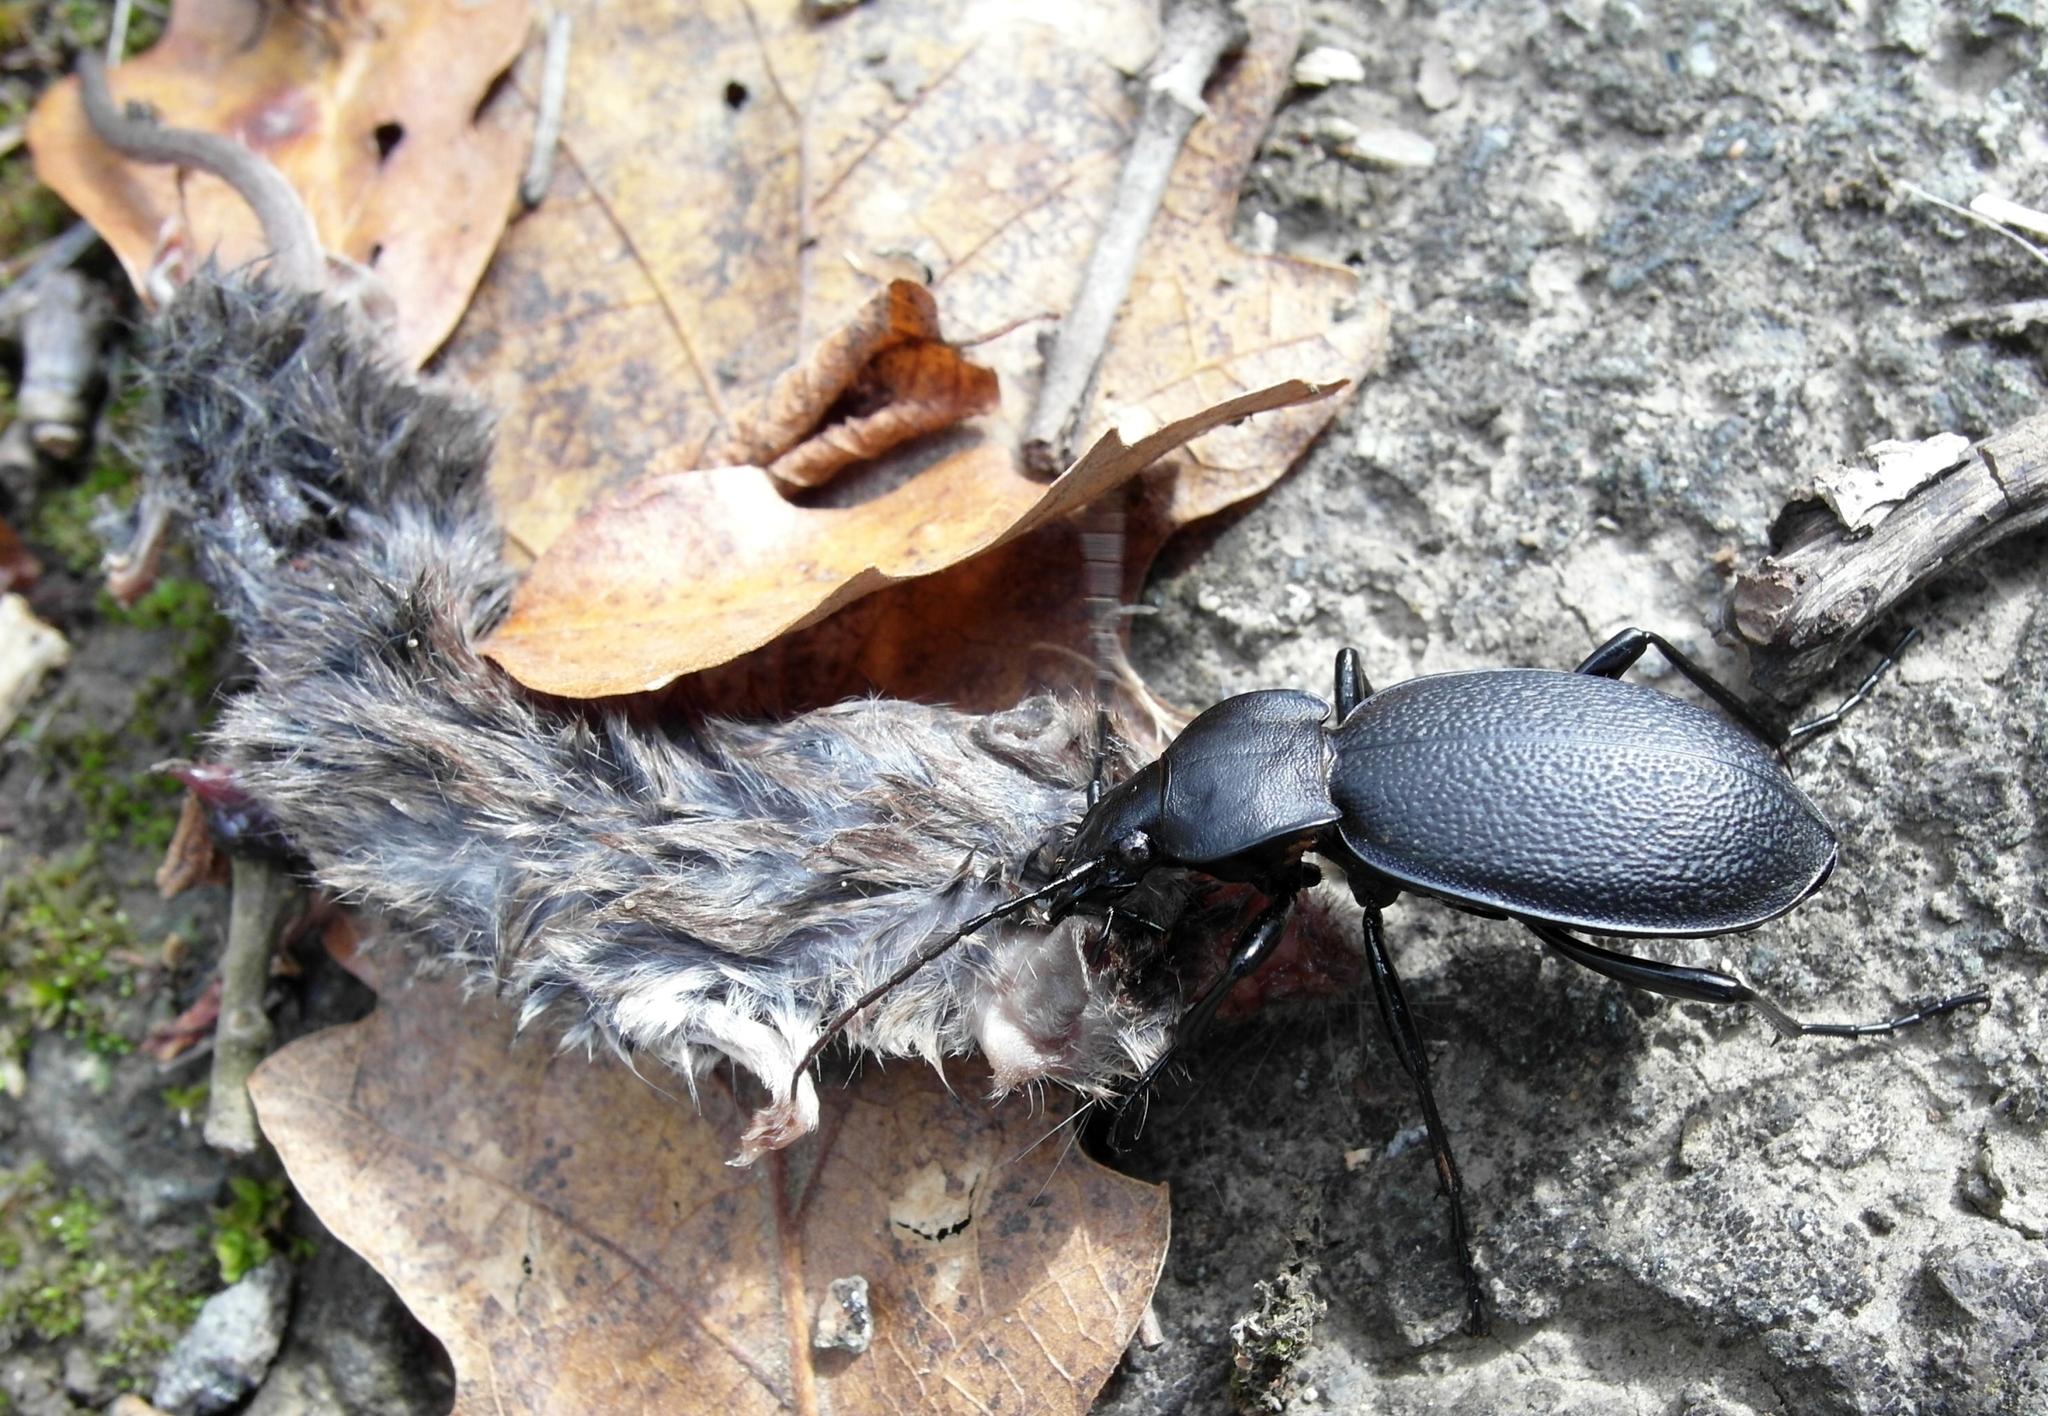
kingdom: Animalia
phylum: Arthropoda
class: Insecta
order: Coleoptera
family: Carabidae
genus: Carabus
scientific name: Carabus coriaceus
